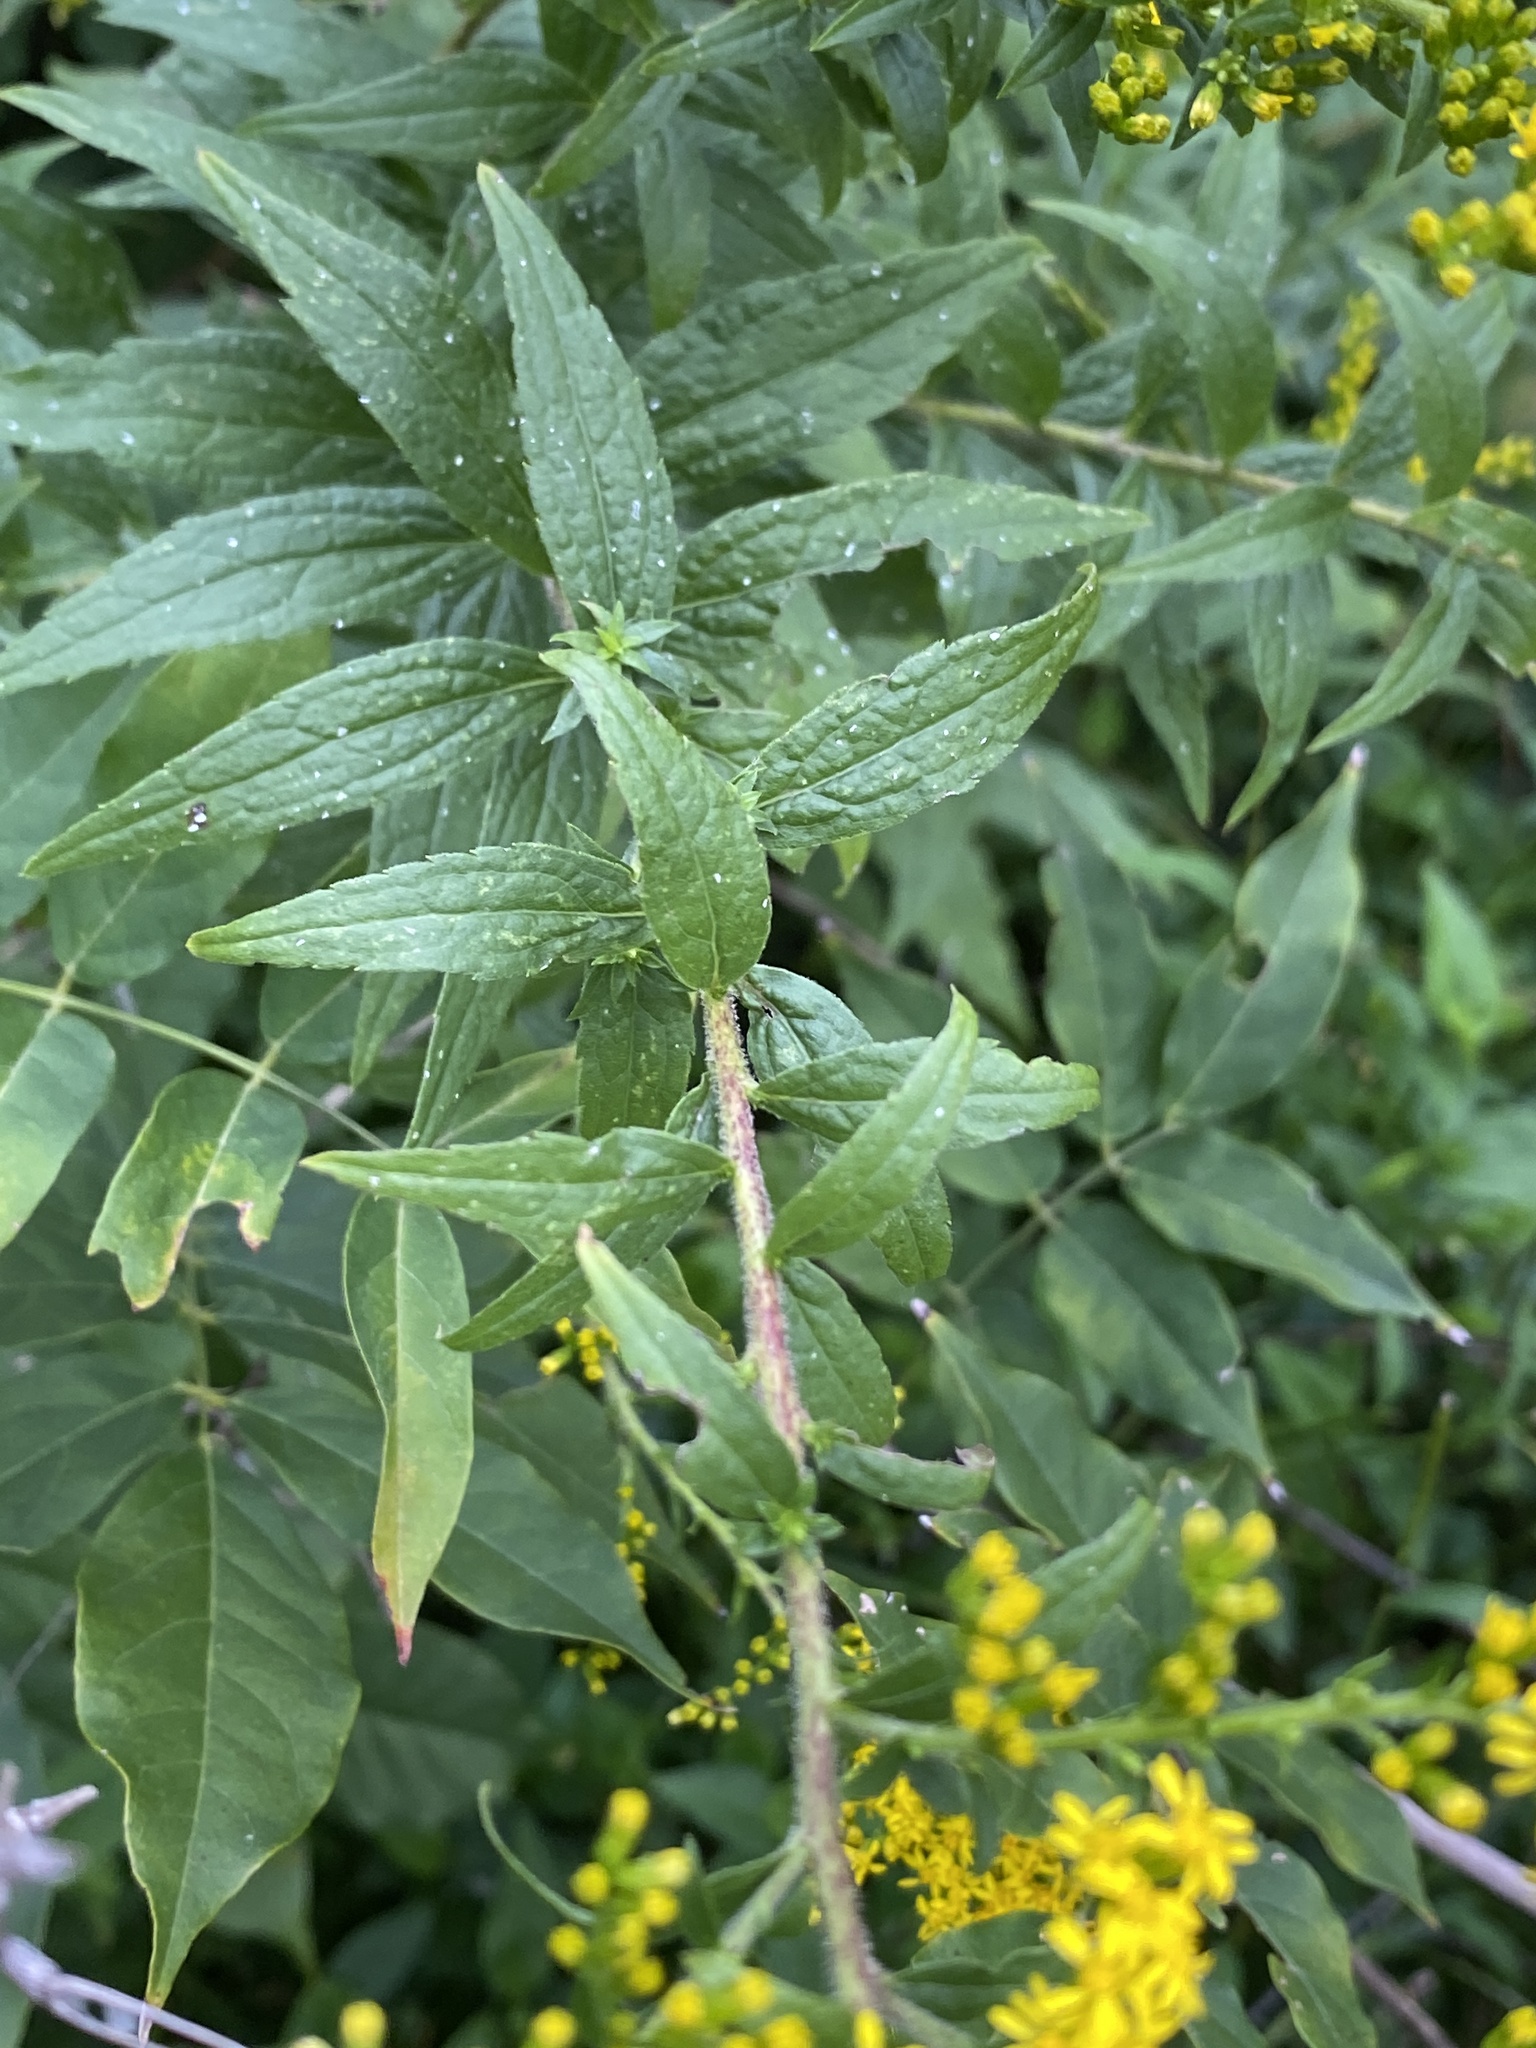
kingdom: Plantae
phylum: Tracheophyta
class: Magnoliopsida
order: Asterales
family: Asteraceae
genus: Solidago
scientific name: Solidago rugosa
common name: Rough-stemmed goldenrod
